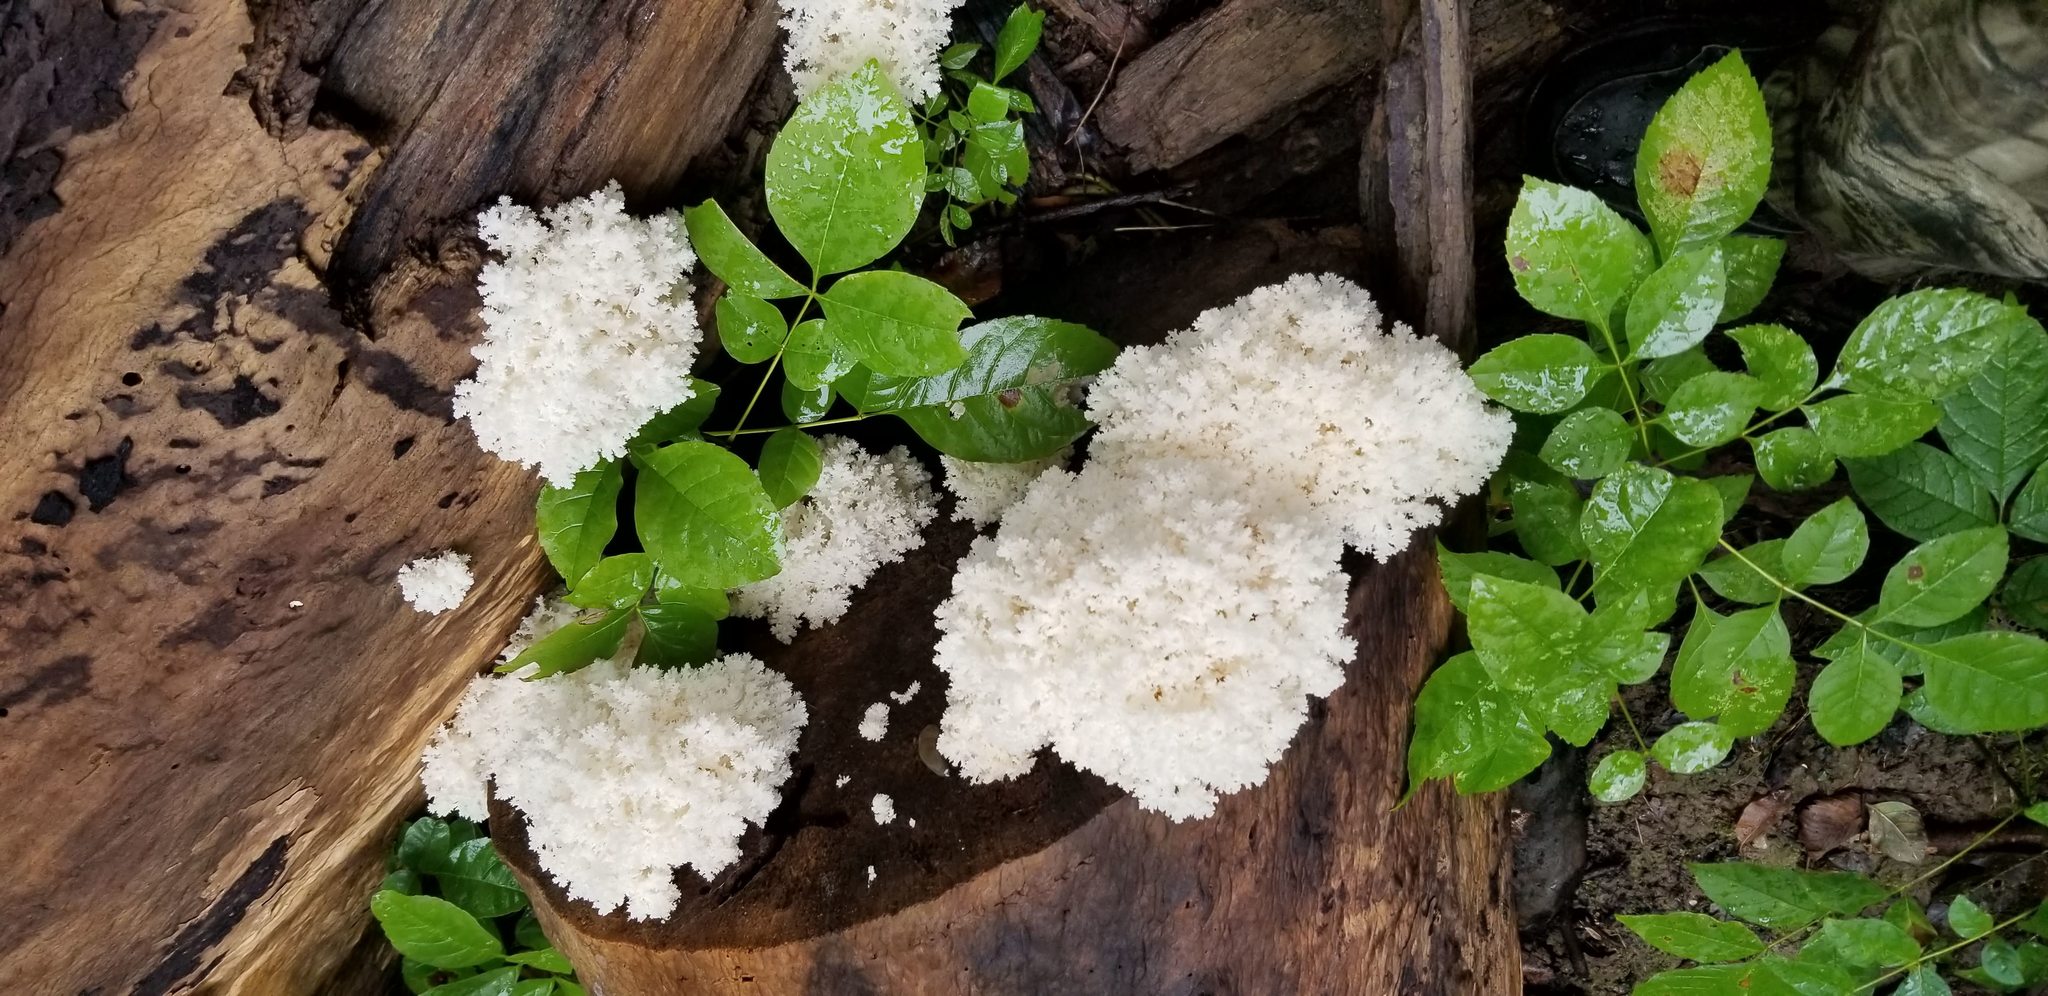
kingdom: Fungi
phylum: Basidiomycota
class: Agaricomycetes
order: Russulales
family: Hericiaceae
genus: Hericium
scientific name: Hericium coralloides
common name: Coral tooth
